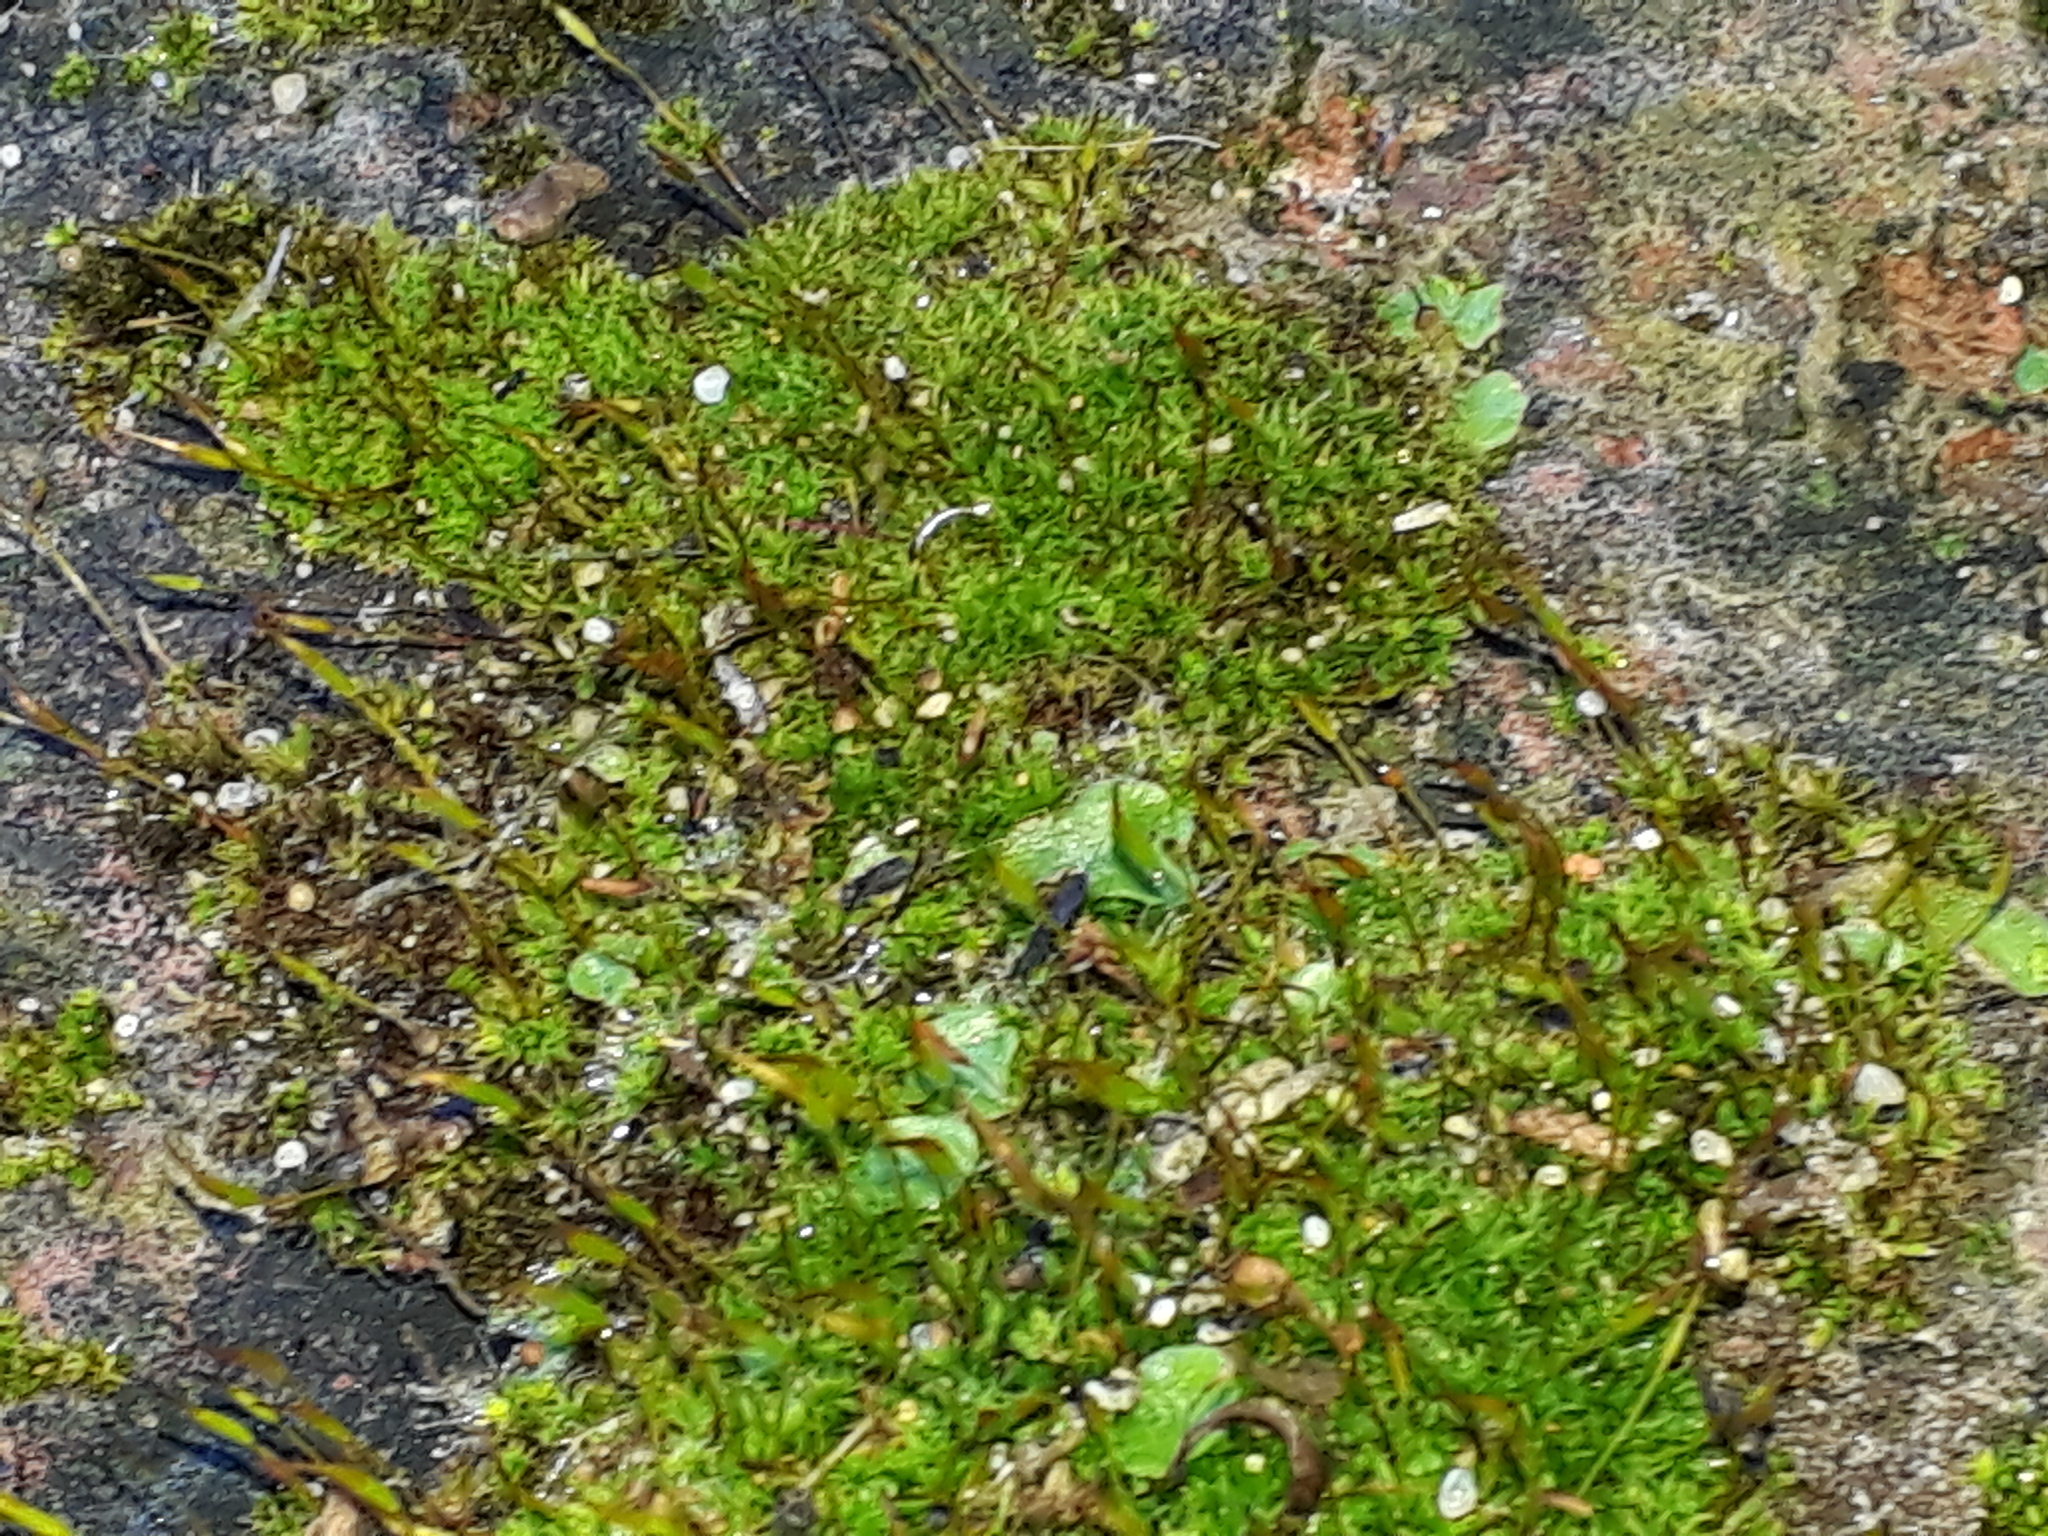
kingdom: Plantae
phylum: Marchantiophyta
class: Marchantiopsida
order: Lunulariales
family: Lunulariaceae
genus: Lunularia
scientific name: Lunularia cruciata
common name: Crescent-cup liverwort
